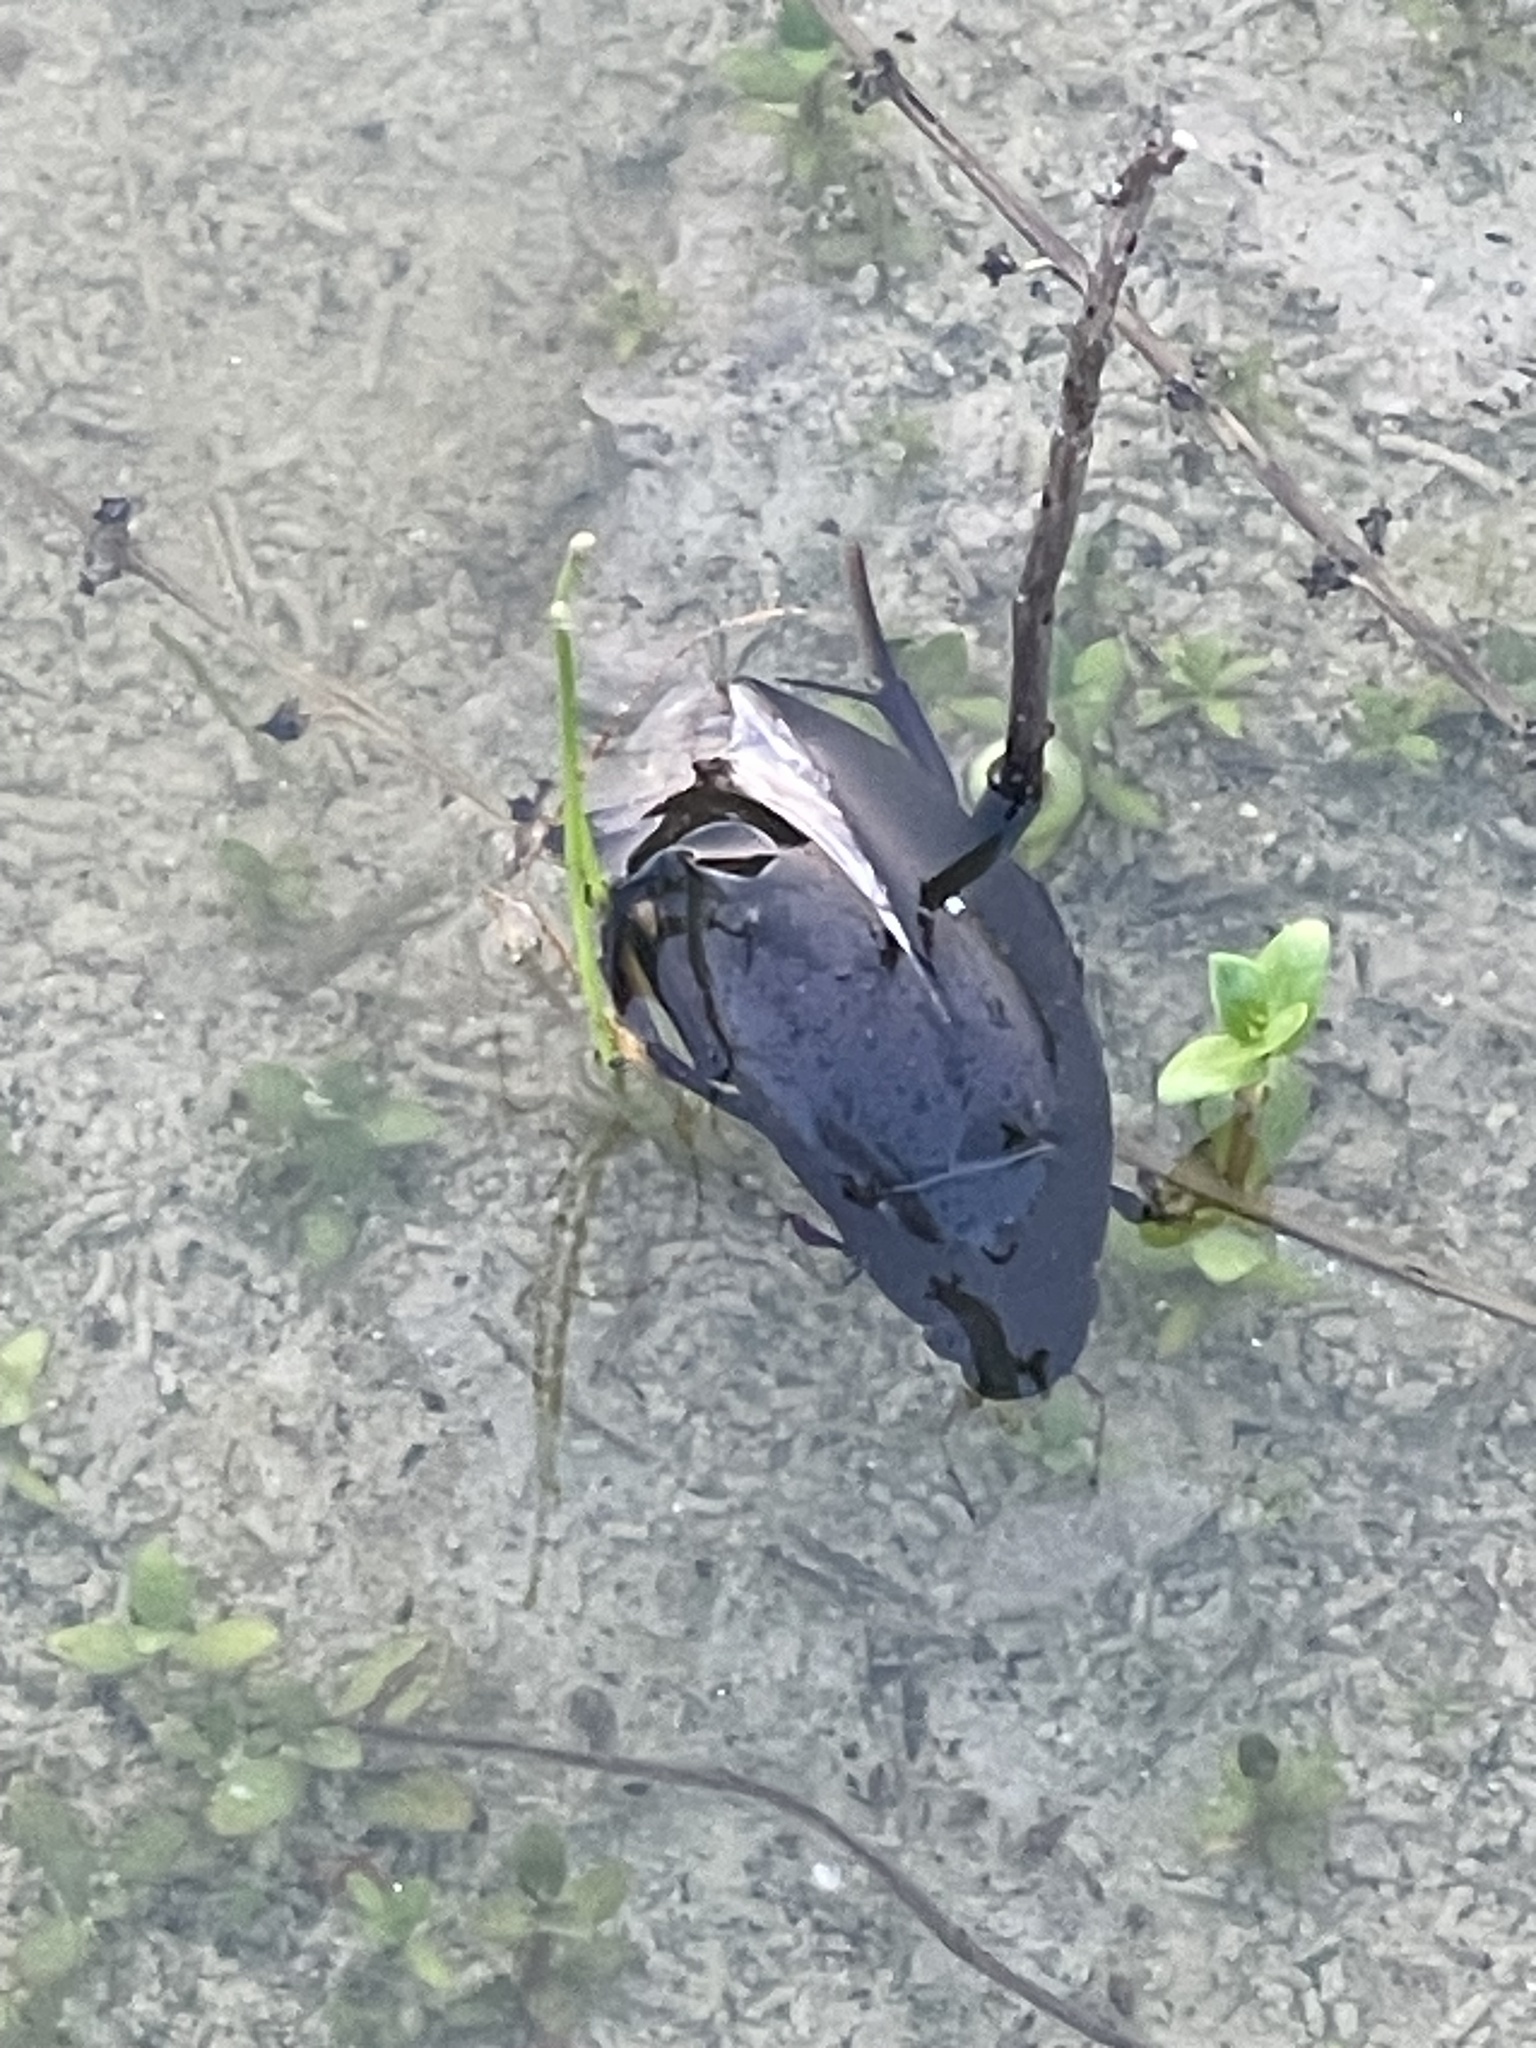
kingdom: Animalia
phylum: Arthropoda
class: Insecta
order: Coleoptera
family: Hydrophilidae
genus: Hydrophilus
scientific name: Hydrophilus triangularis
